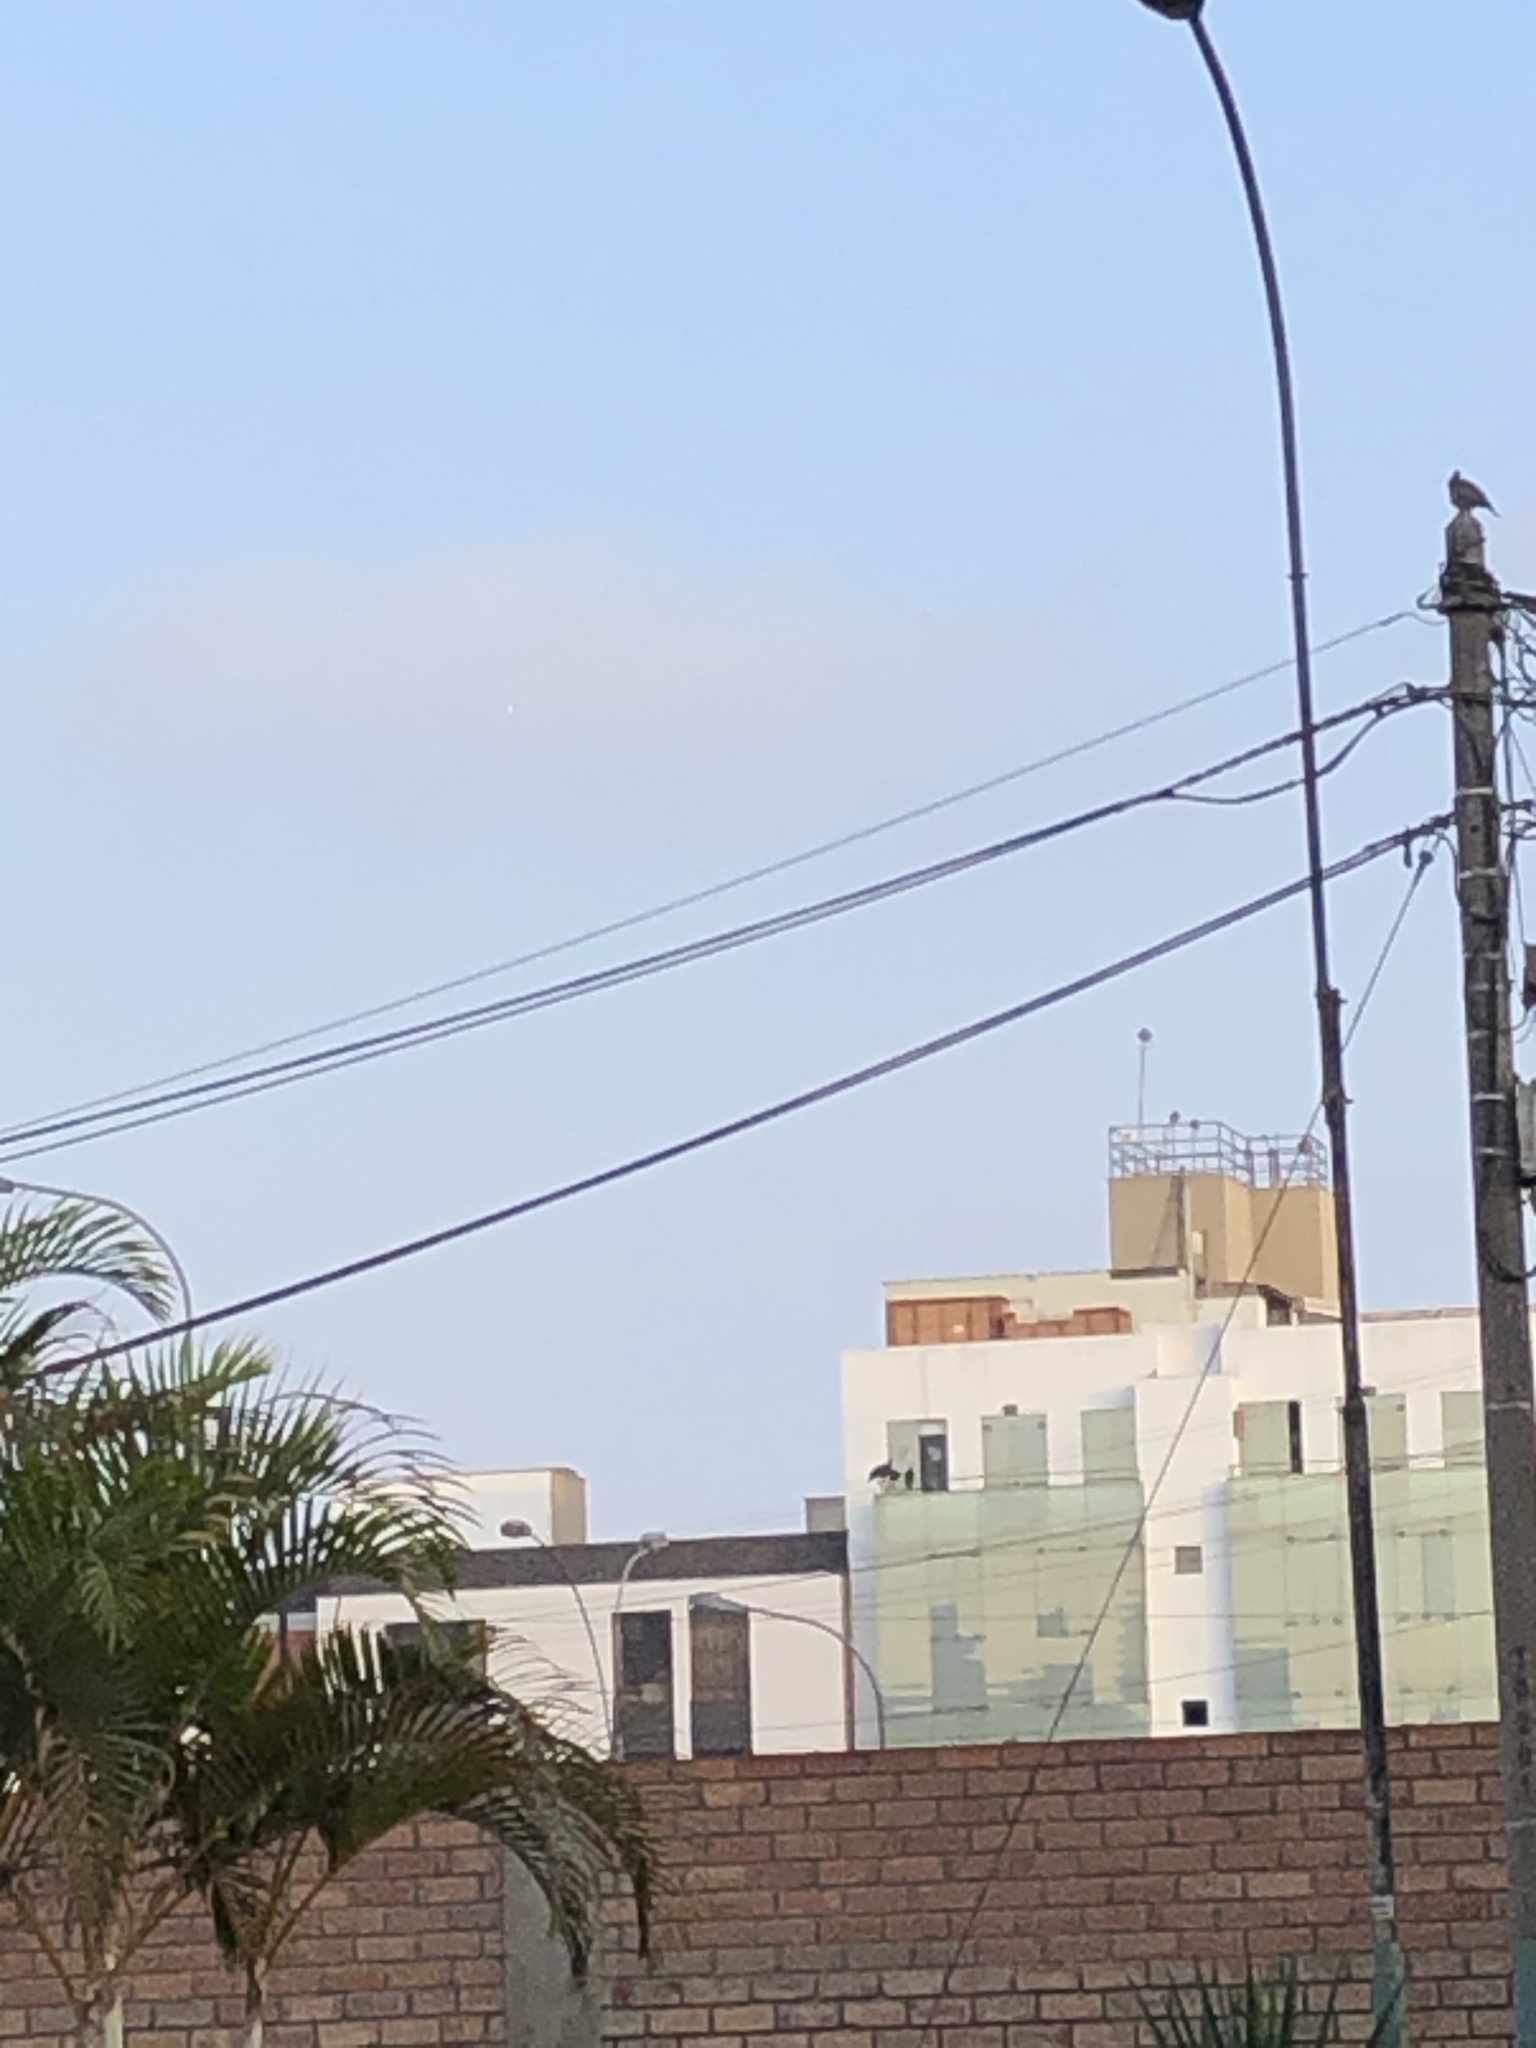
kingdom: Animalia
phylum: Chordata
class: Aves
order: Accipitriformes
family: Cathartidae
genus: Coragyps
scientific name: Coragyps atratus
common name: Black vulture
